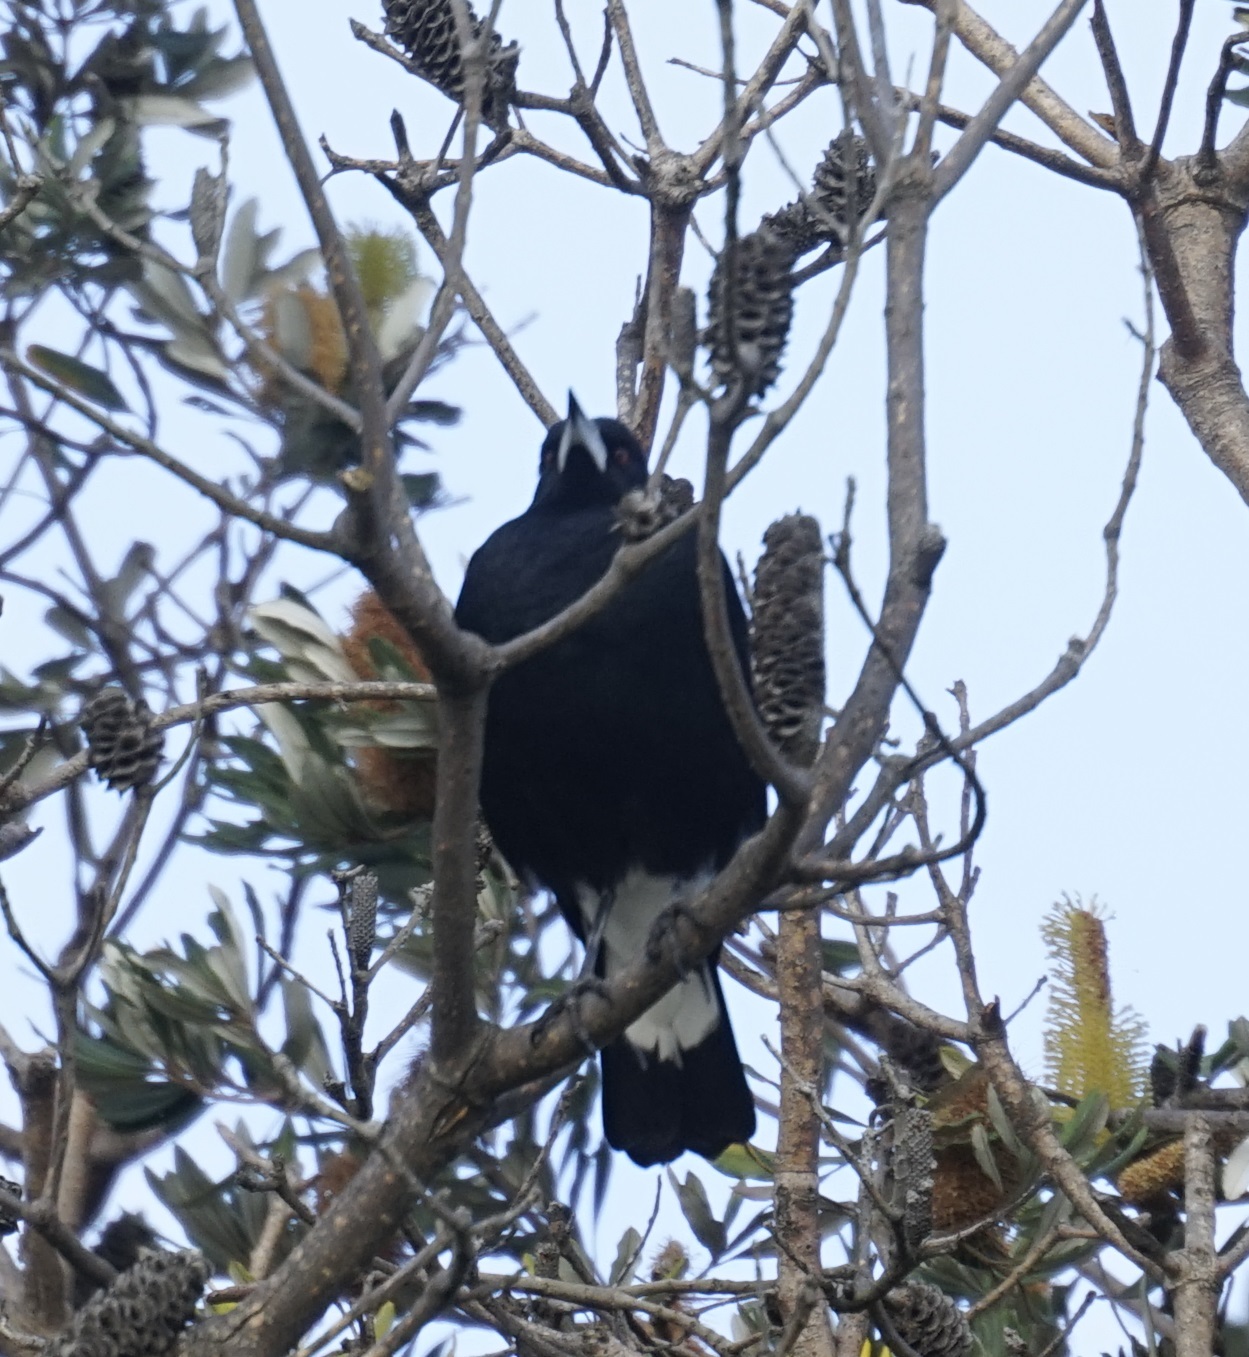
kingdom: Animalia
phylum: Chordata
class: Aves
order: Passeriformes
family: Cracticidae
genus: Gymnorhina
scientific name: Gymnorhina tibicen
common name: Australian magpie
